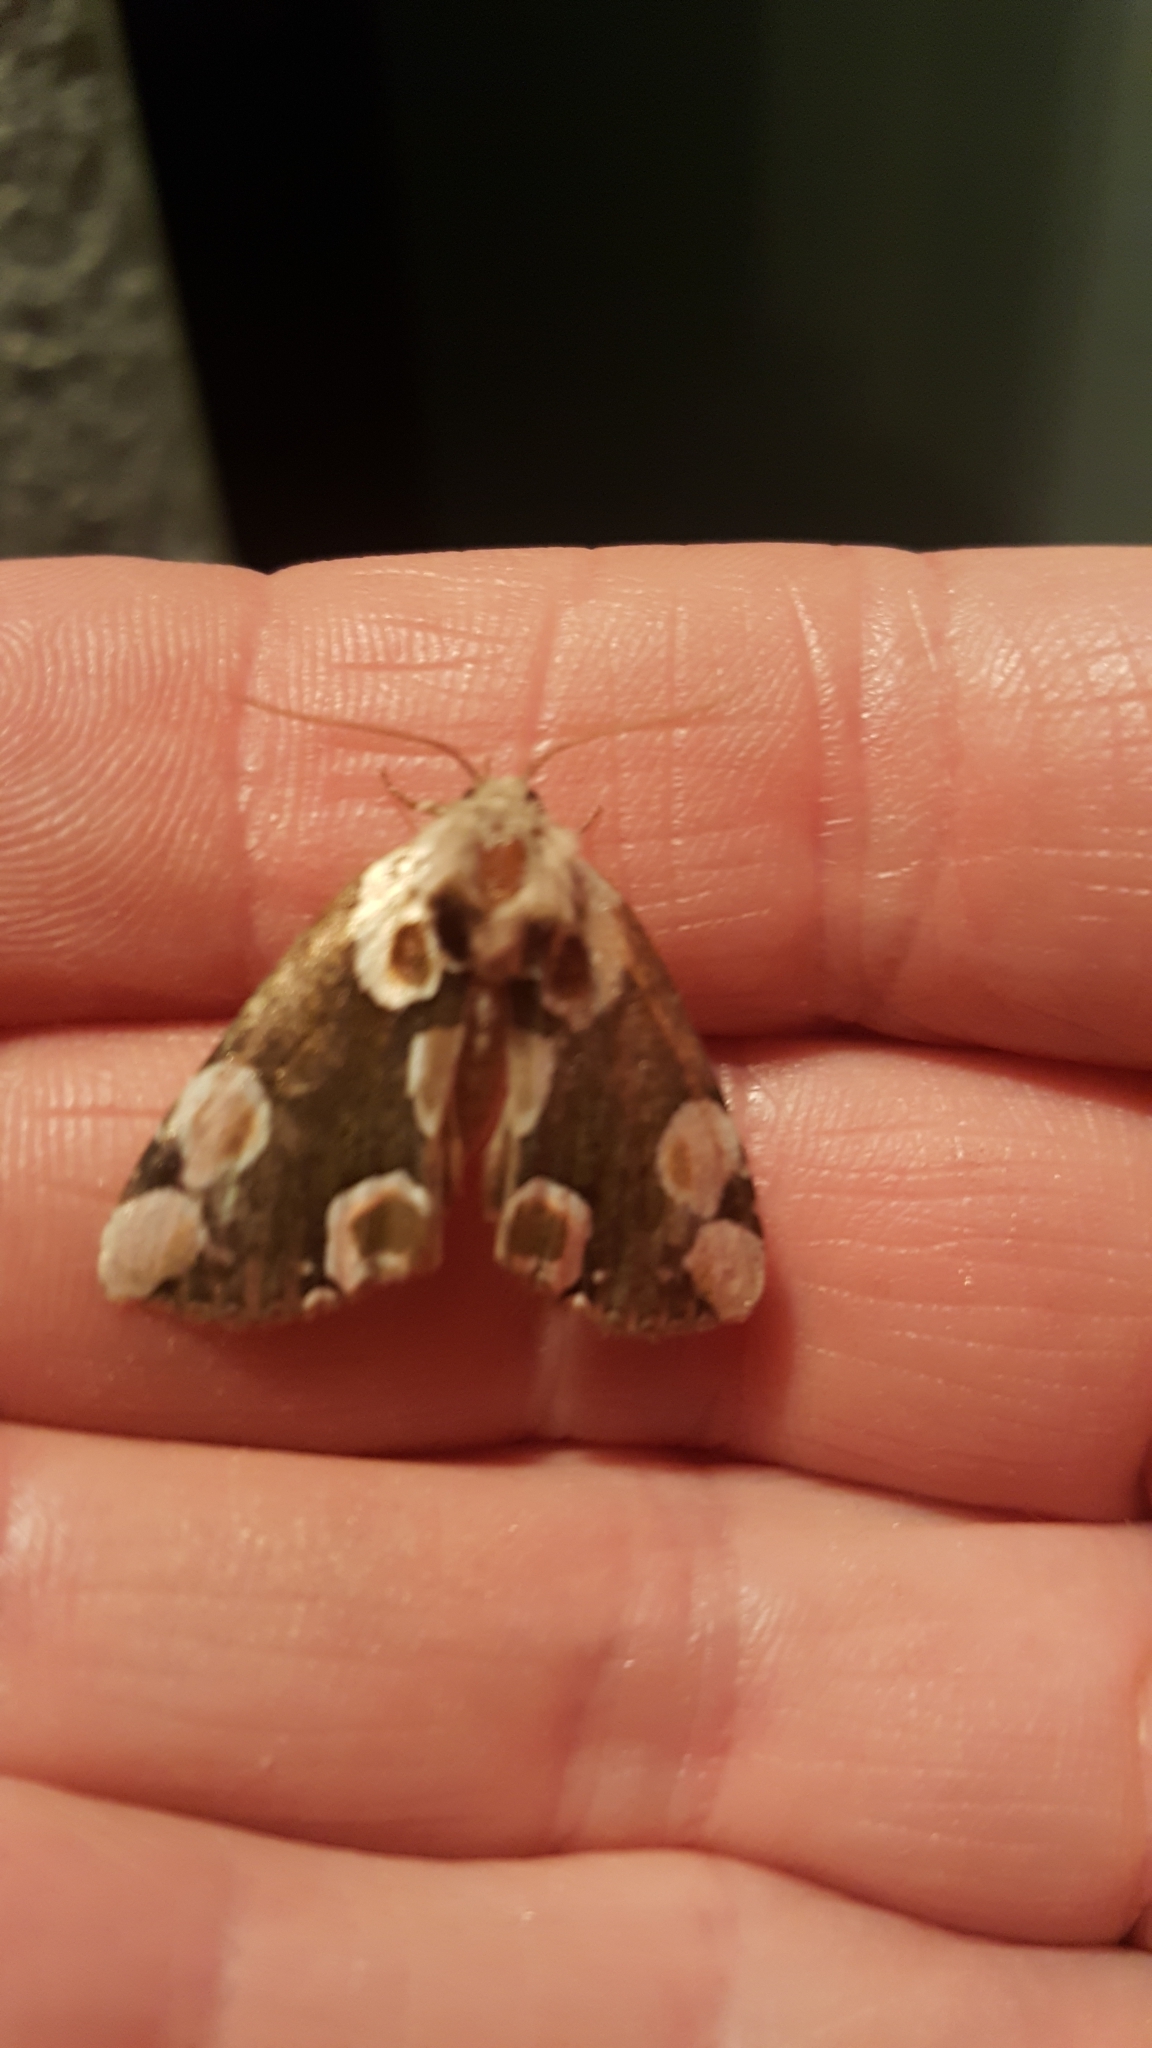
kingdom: Animalia
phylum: Arthropoda
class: Insecta
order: Lepidoptera
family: Drepanidae
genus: Thyatira
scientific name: Thyatira batis
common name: Peach blossom
